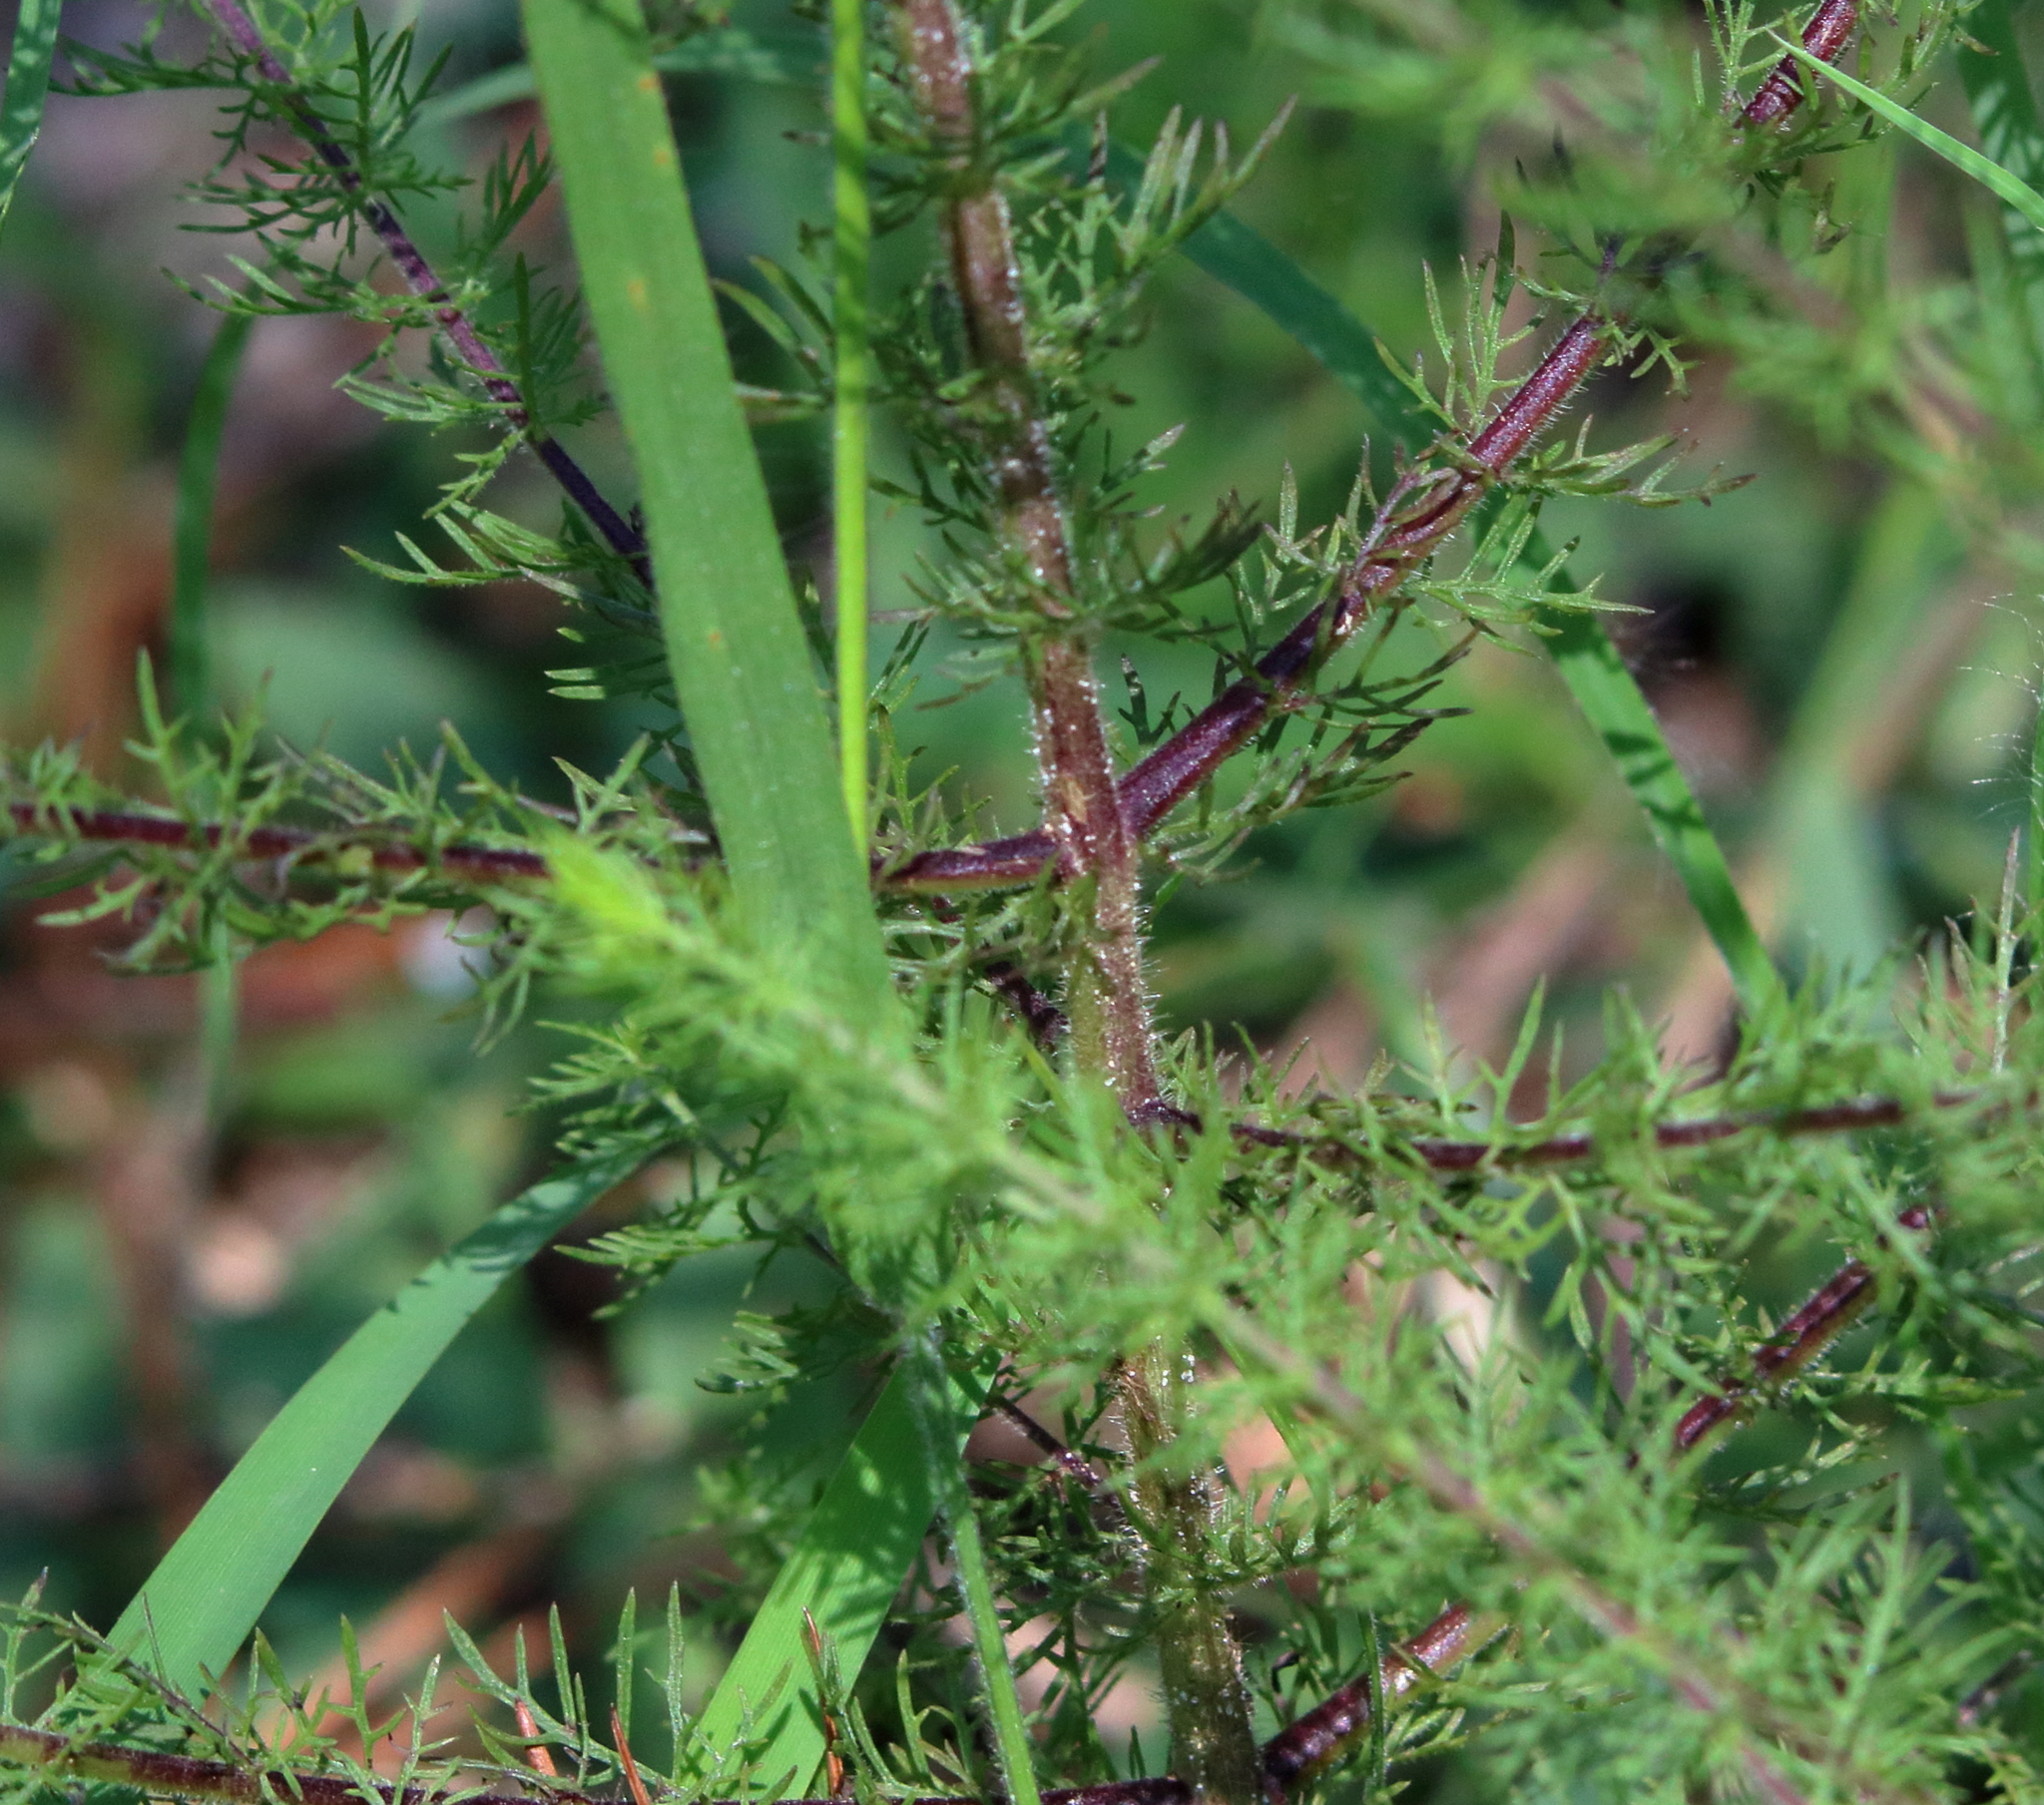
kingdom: Plantae
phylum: Tracheophyta
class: Magnoliopsida
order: Lamiales
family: Orobanchaceae
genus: Seymeria
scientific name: Seymeria cassioides
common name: Yaupon black-senna
